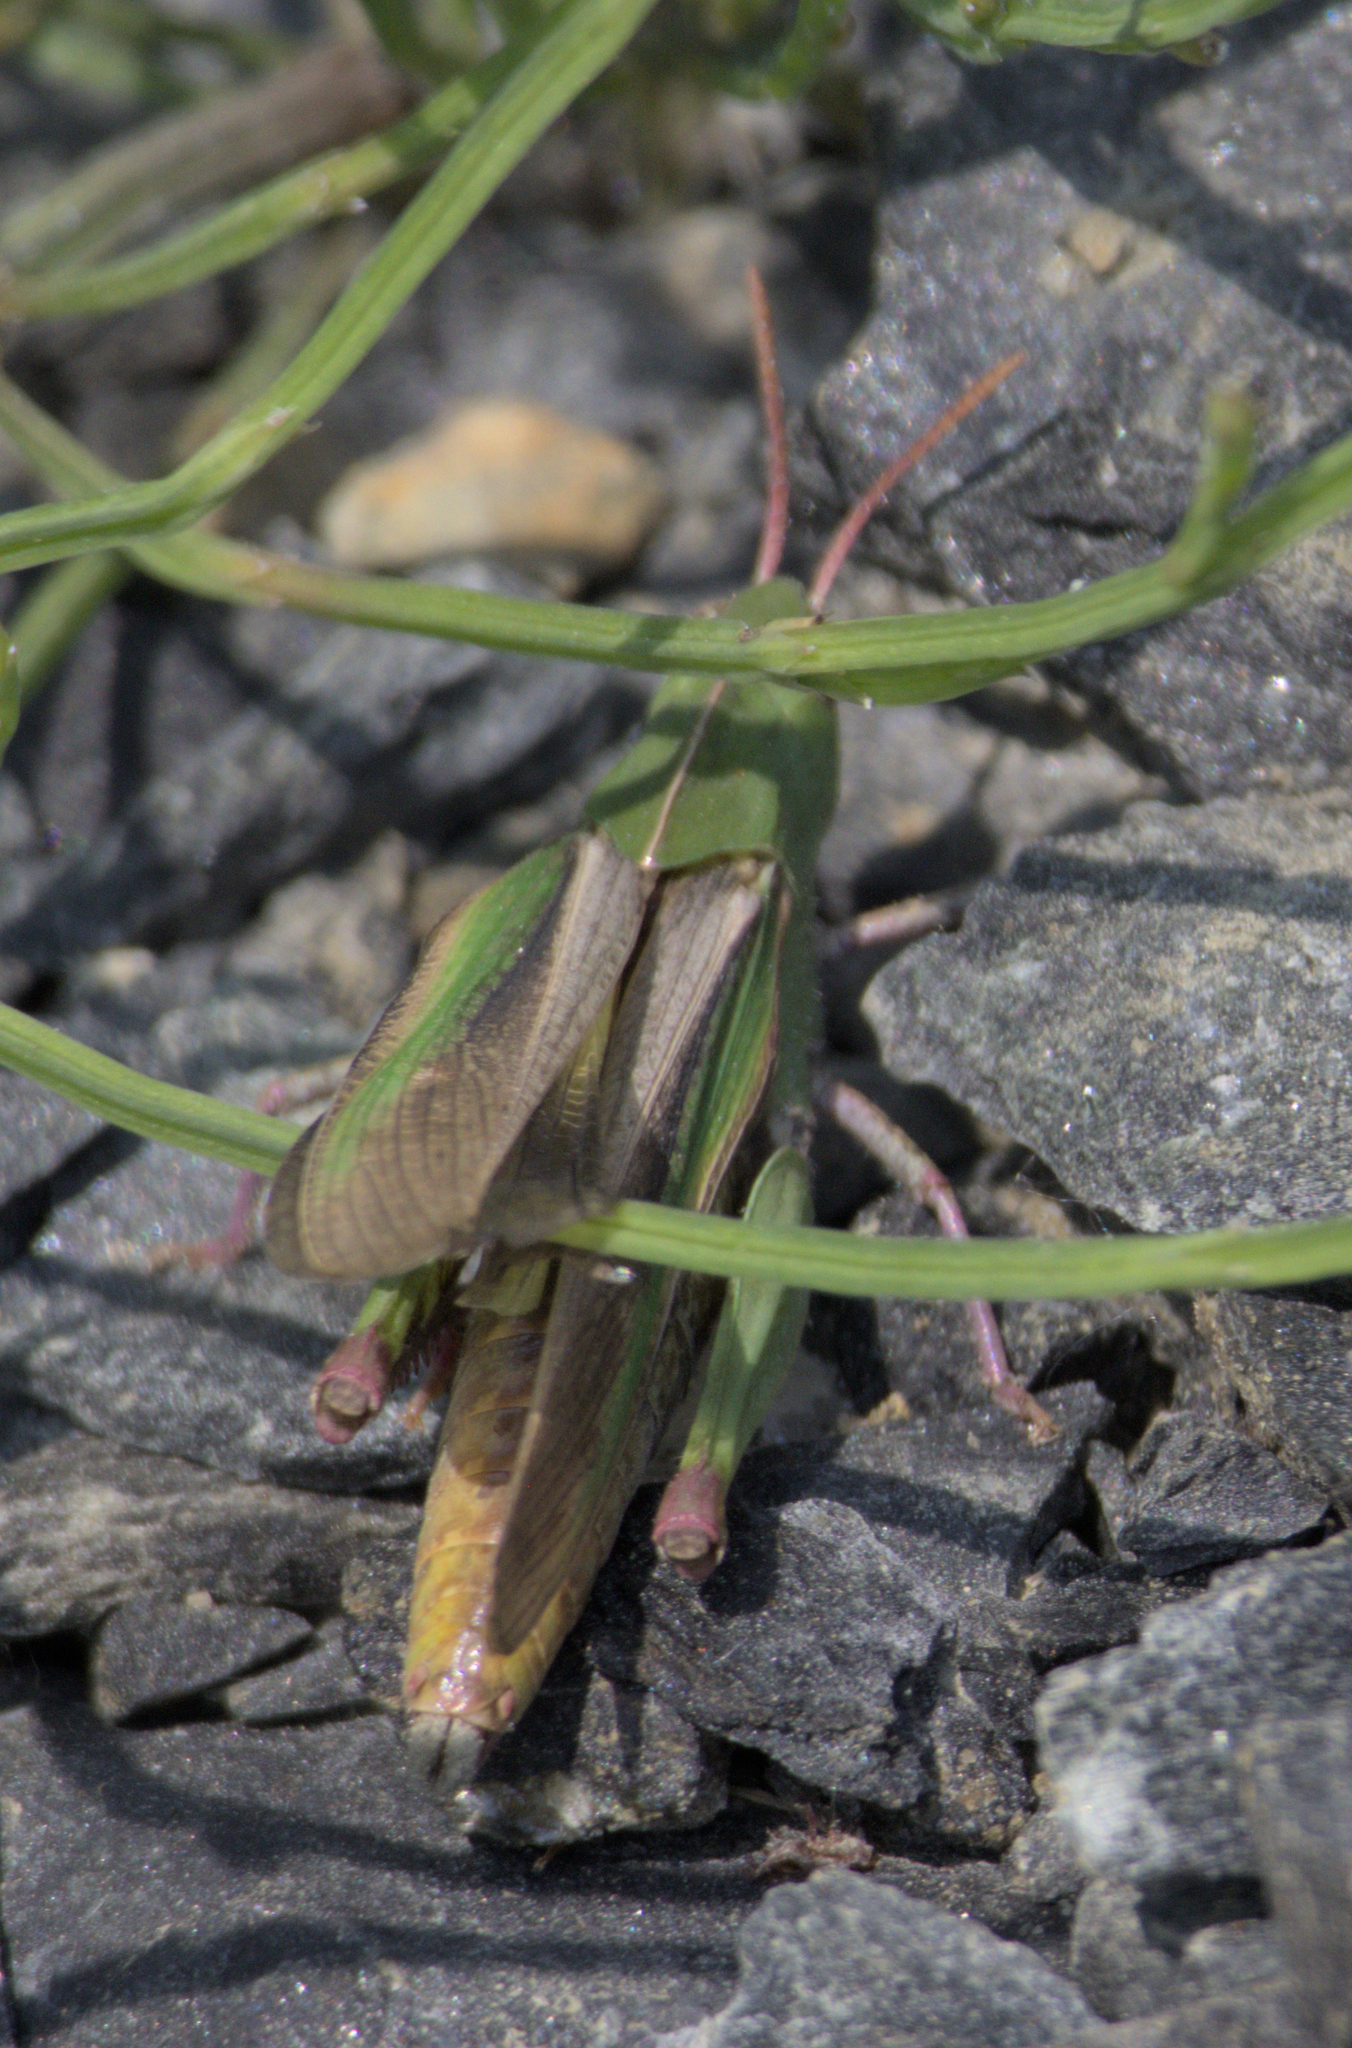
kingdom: Animalia
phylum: Arthropoda
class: Insecta
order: Orthoptera
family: Acrididae
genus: Chortophaga
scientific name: Chortophaga viridifasciata
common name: Green-striped grasshopper
